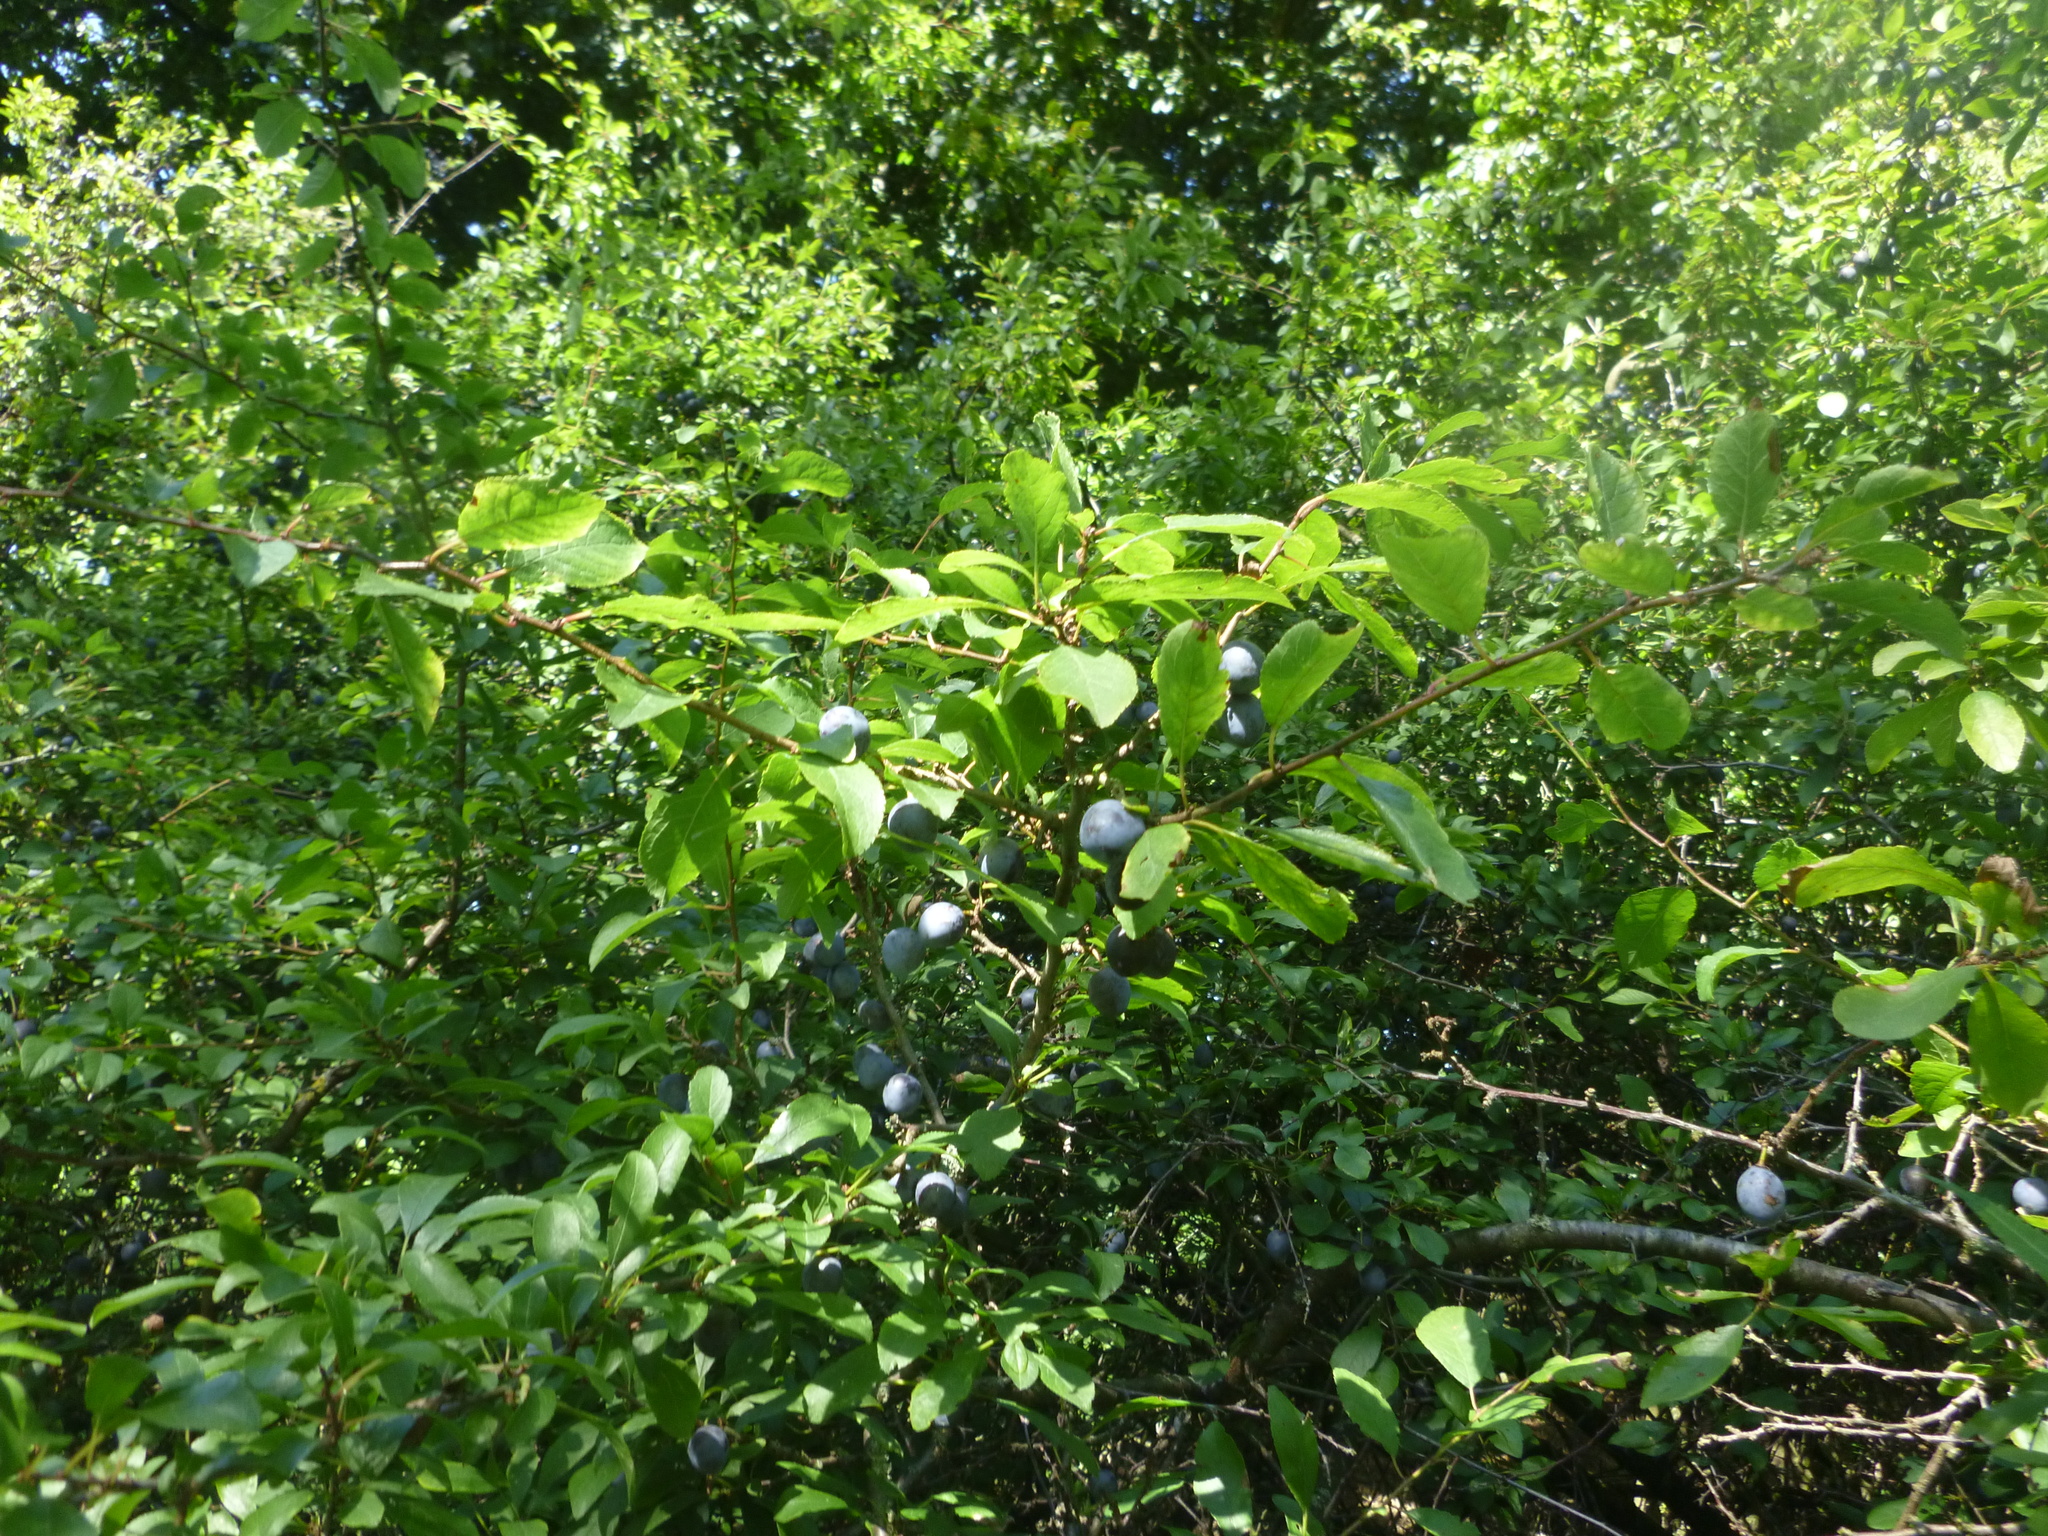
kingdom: Plantae
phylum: Tracheophyta
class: Magnoliopsida
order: Rosales
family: Rosaceae
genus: Prunus
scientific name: Prunus spinosa
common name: Blackthorn
